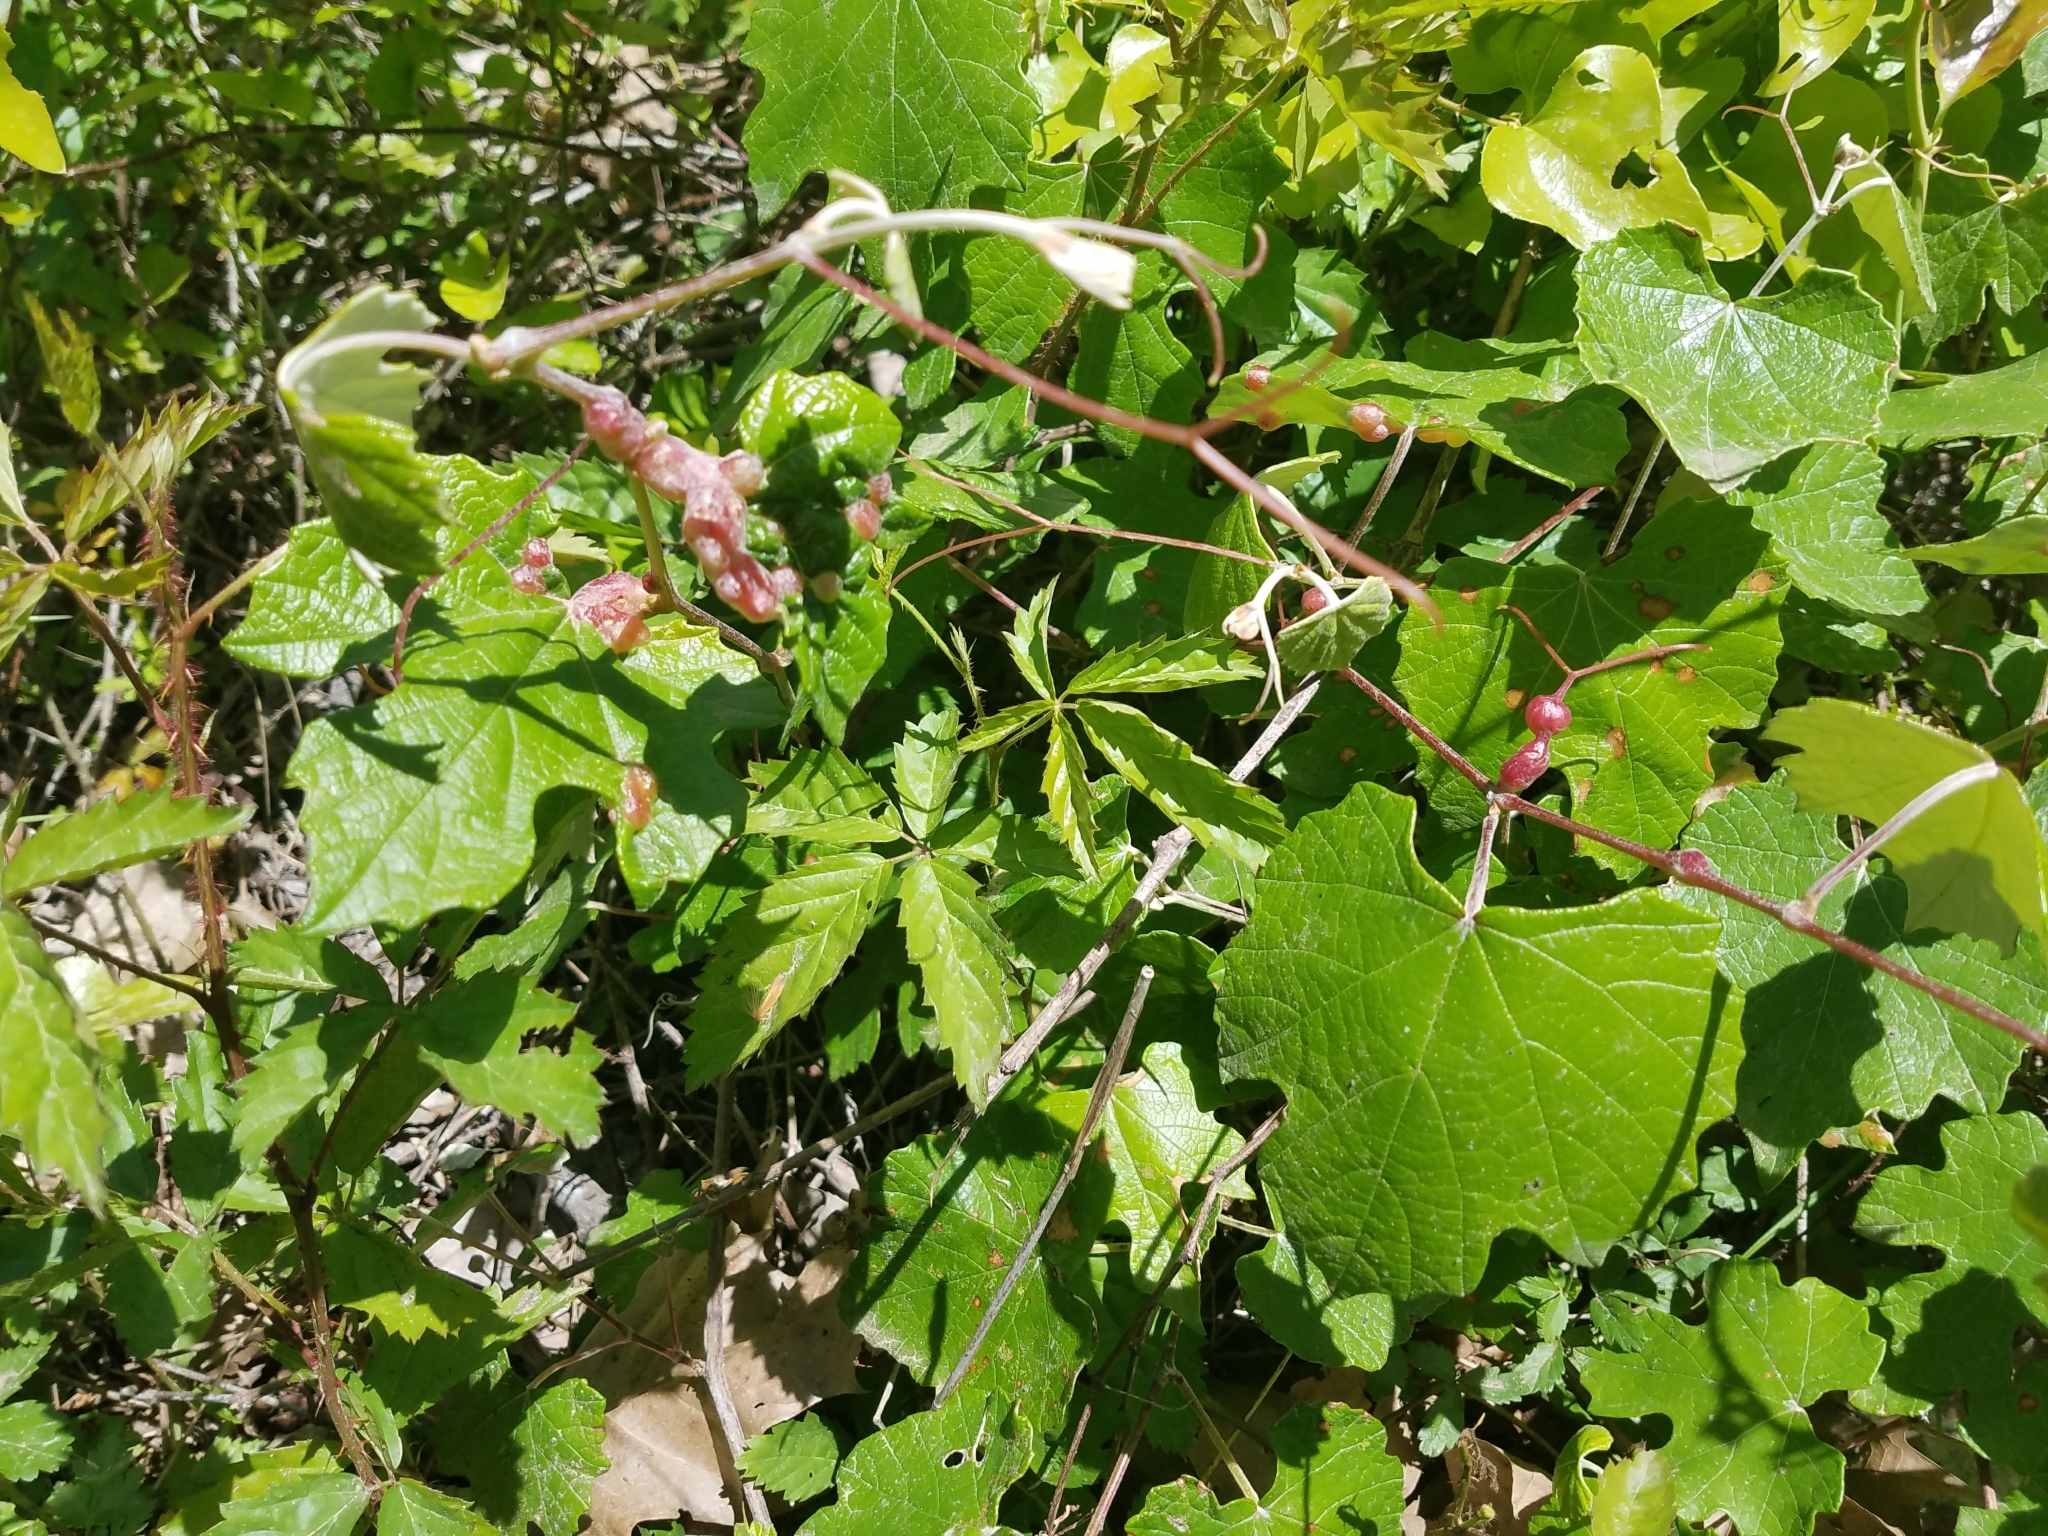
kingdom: Plantae
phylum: Tracheophyta
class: Magnoliopsida
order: Vitales
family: Vitaceae
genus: Vitis
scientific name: Vitis mustangensis
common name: Mustang grape
